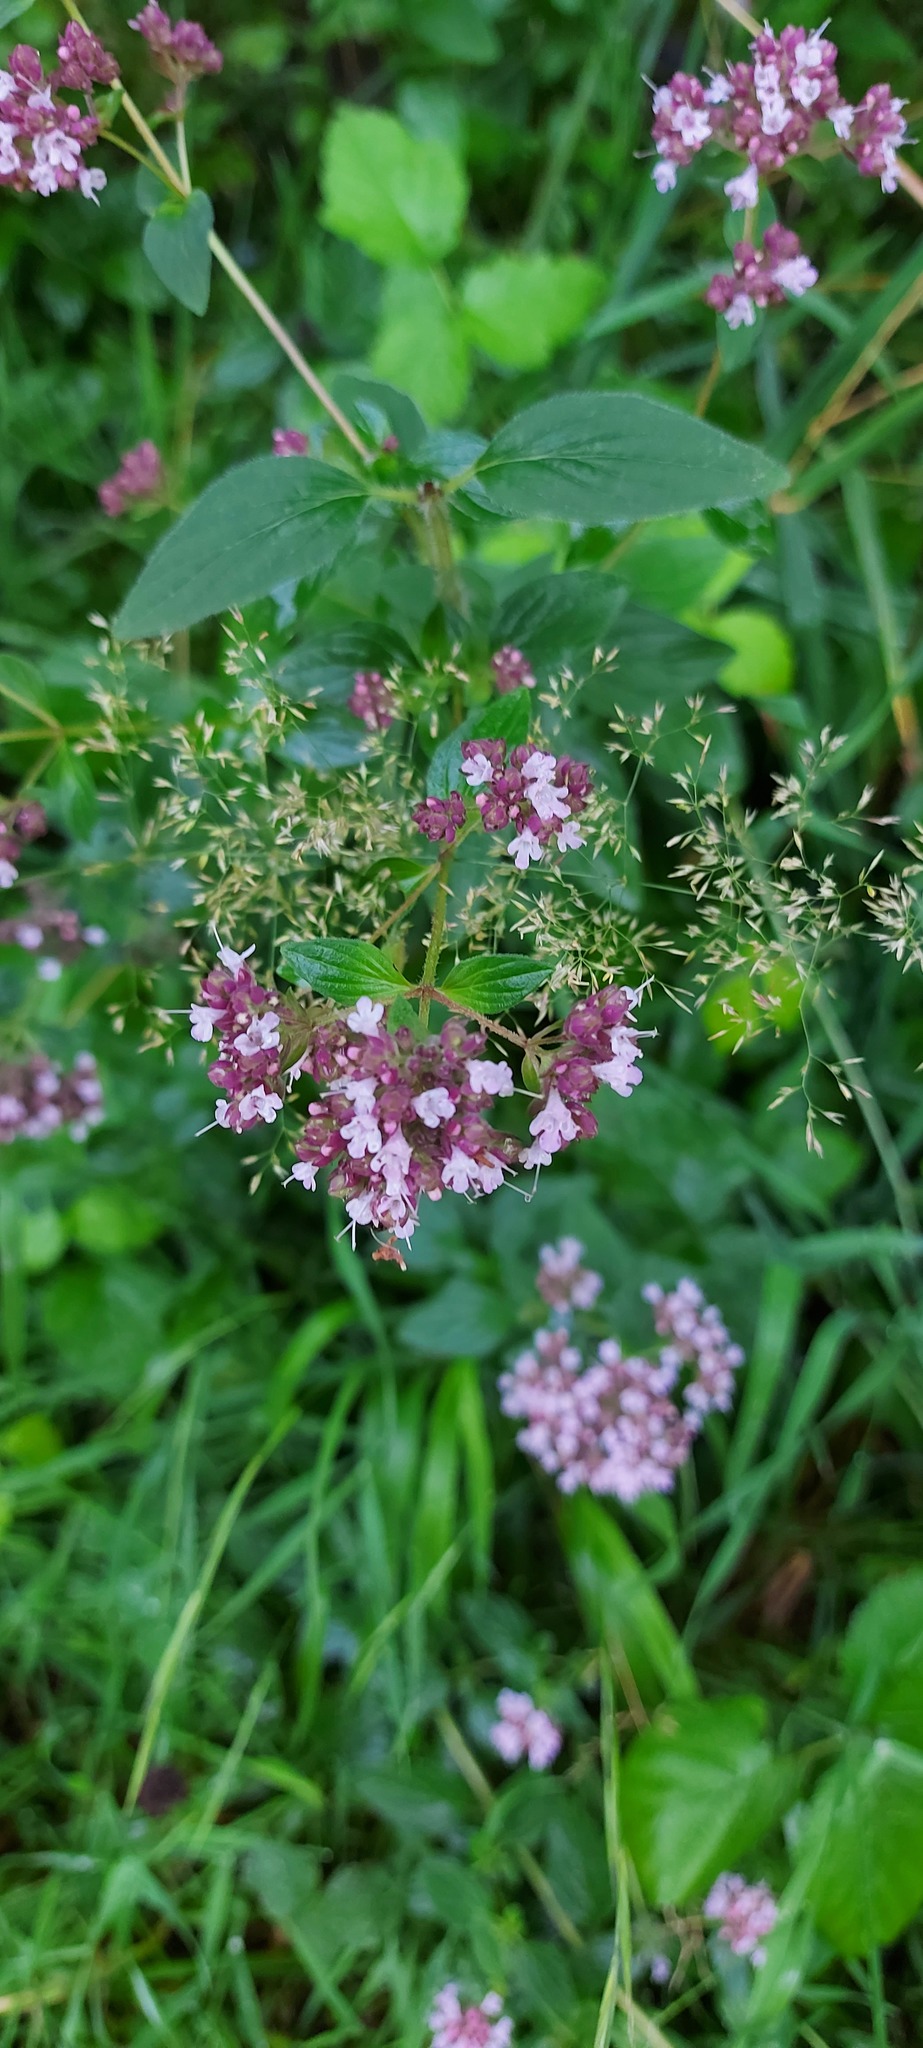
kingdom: Plantae
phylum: Tracheophyta
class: Magnoliopsida
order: Lamiales
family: Lamiaceae
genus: Origanum
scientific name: Origanum vulgare
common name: Wild marjoram
